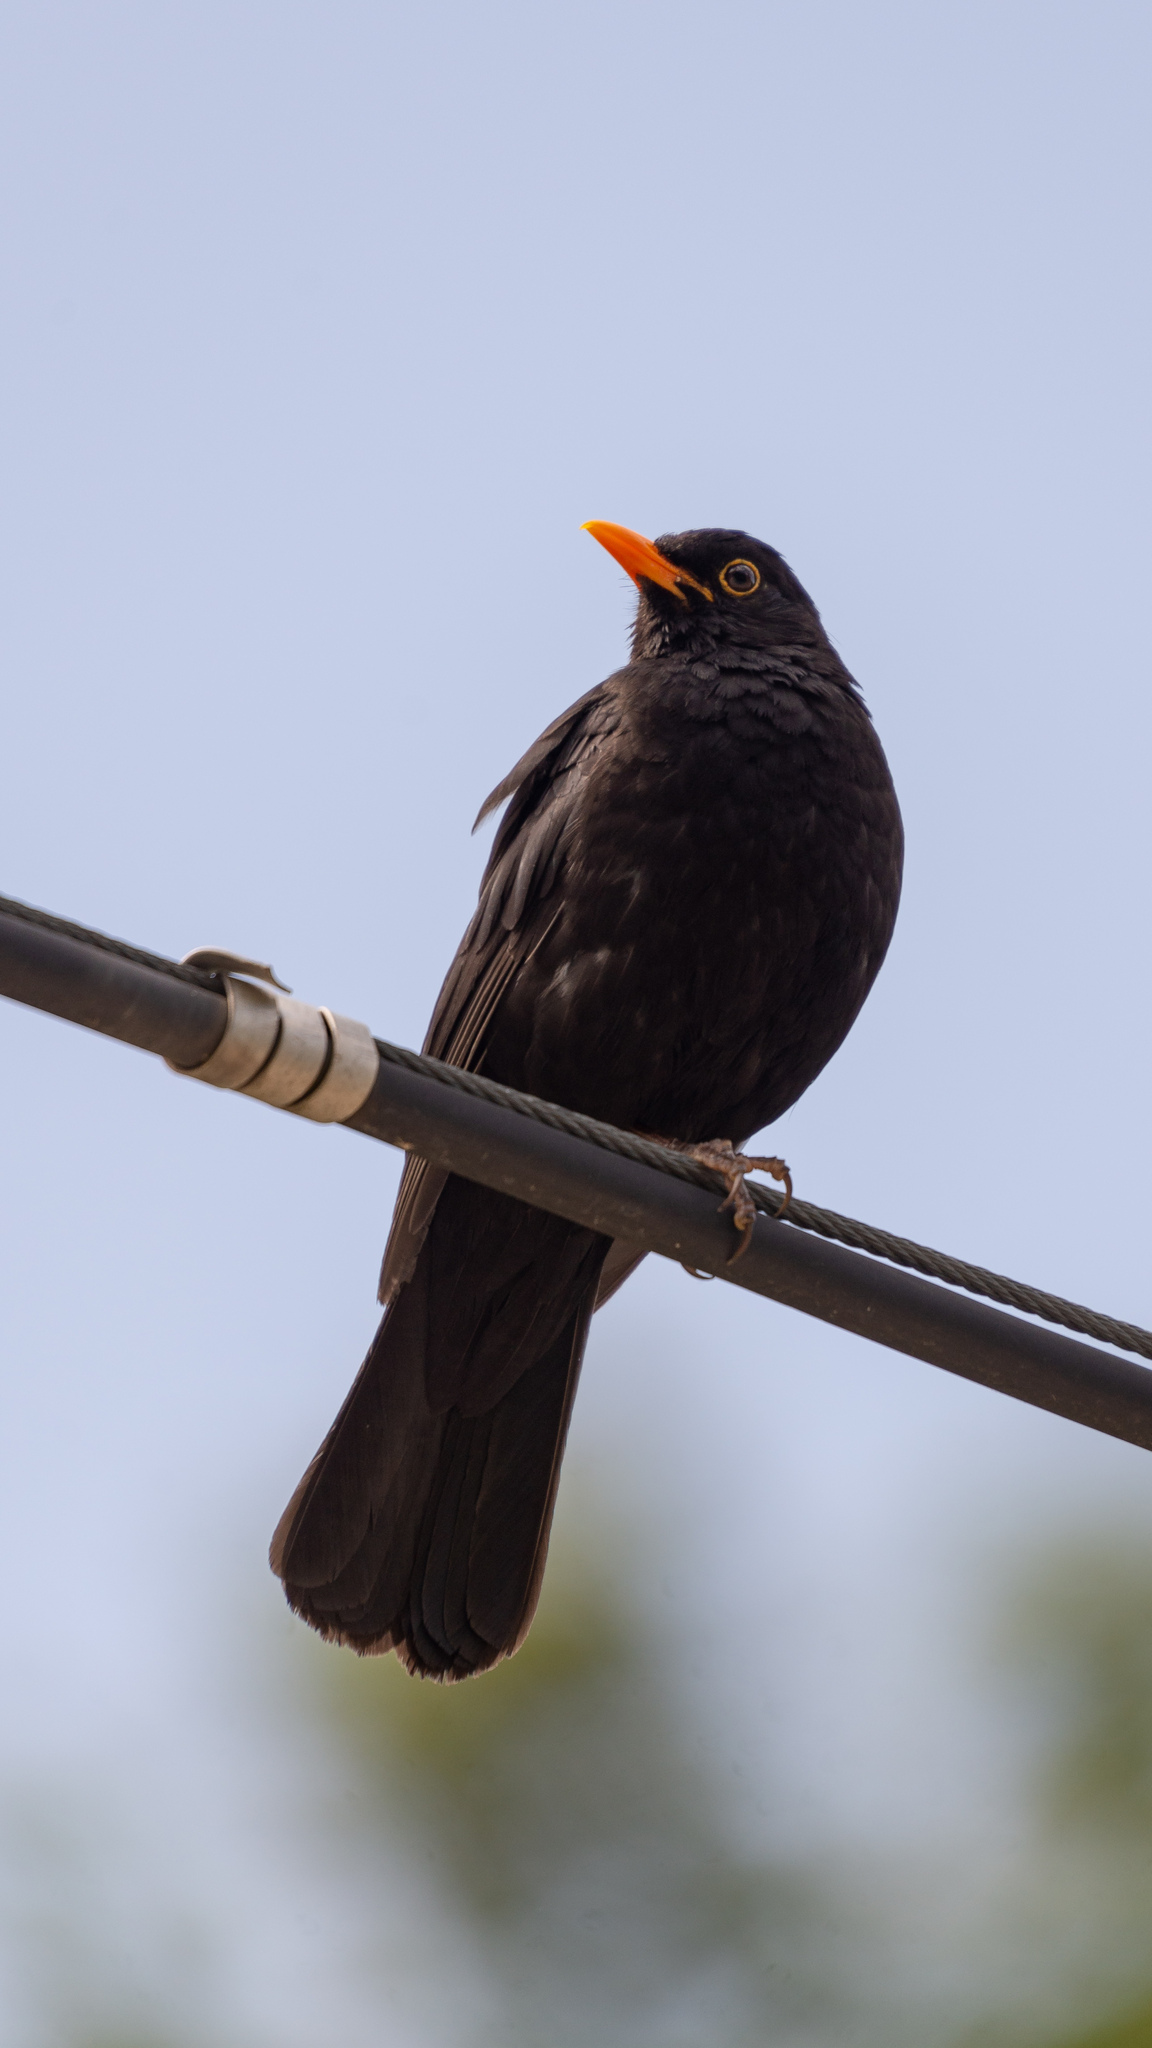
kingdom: Animalia
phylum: Chordata
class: Aves
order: Passeriformes
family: Turdidae
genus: Turdus
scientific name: Turdus merula
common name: Common blackbird
